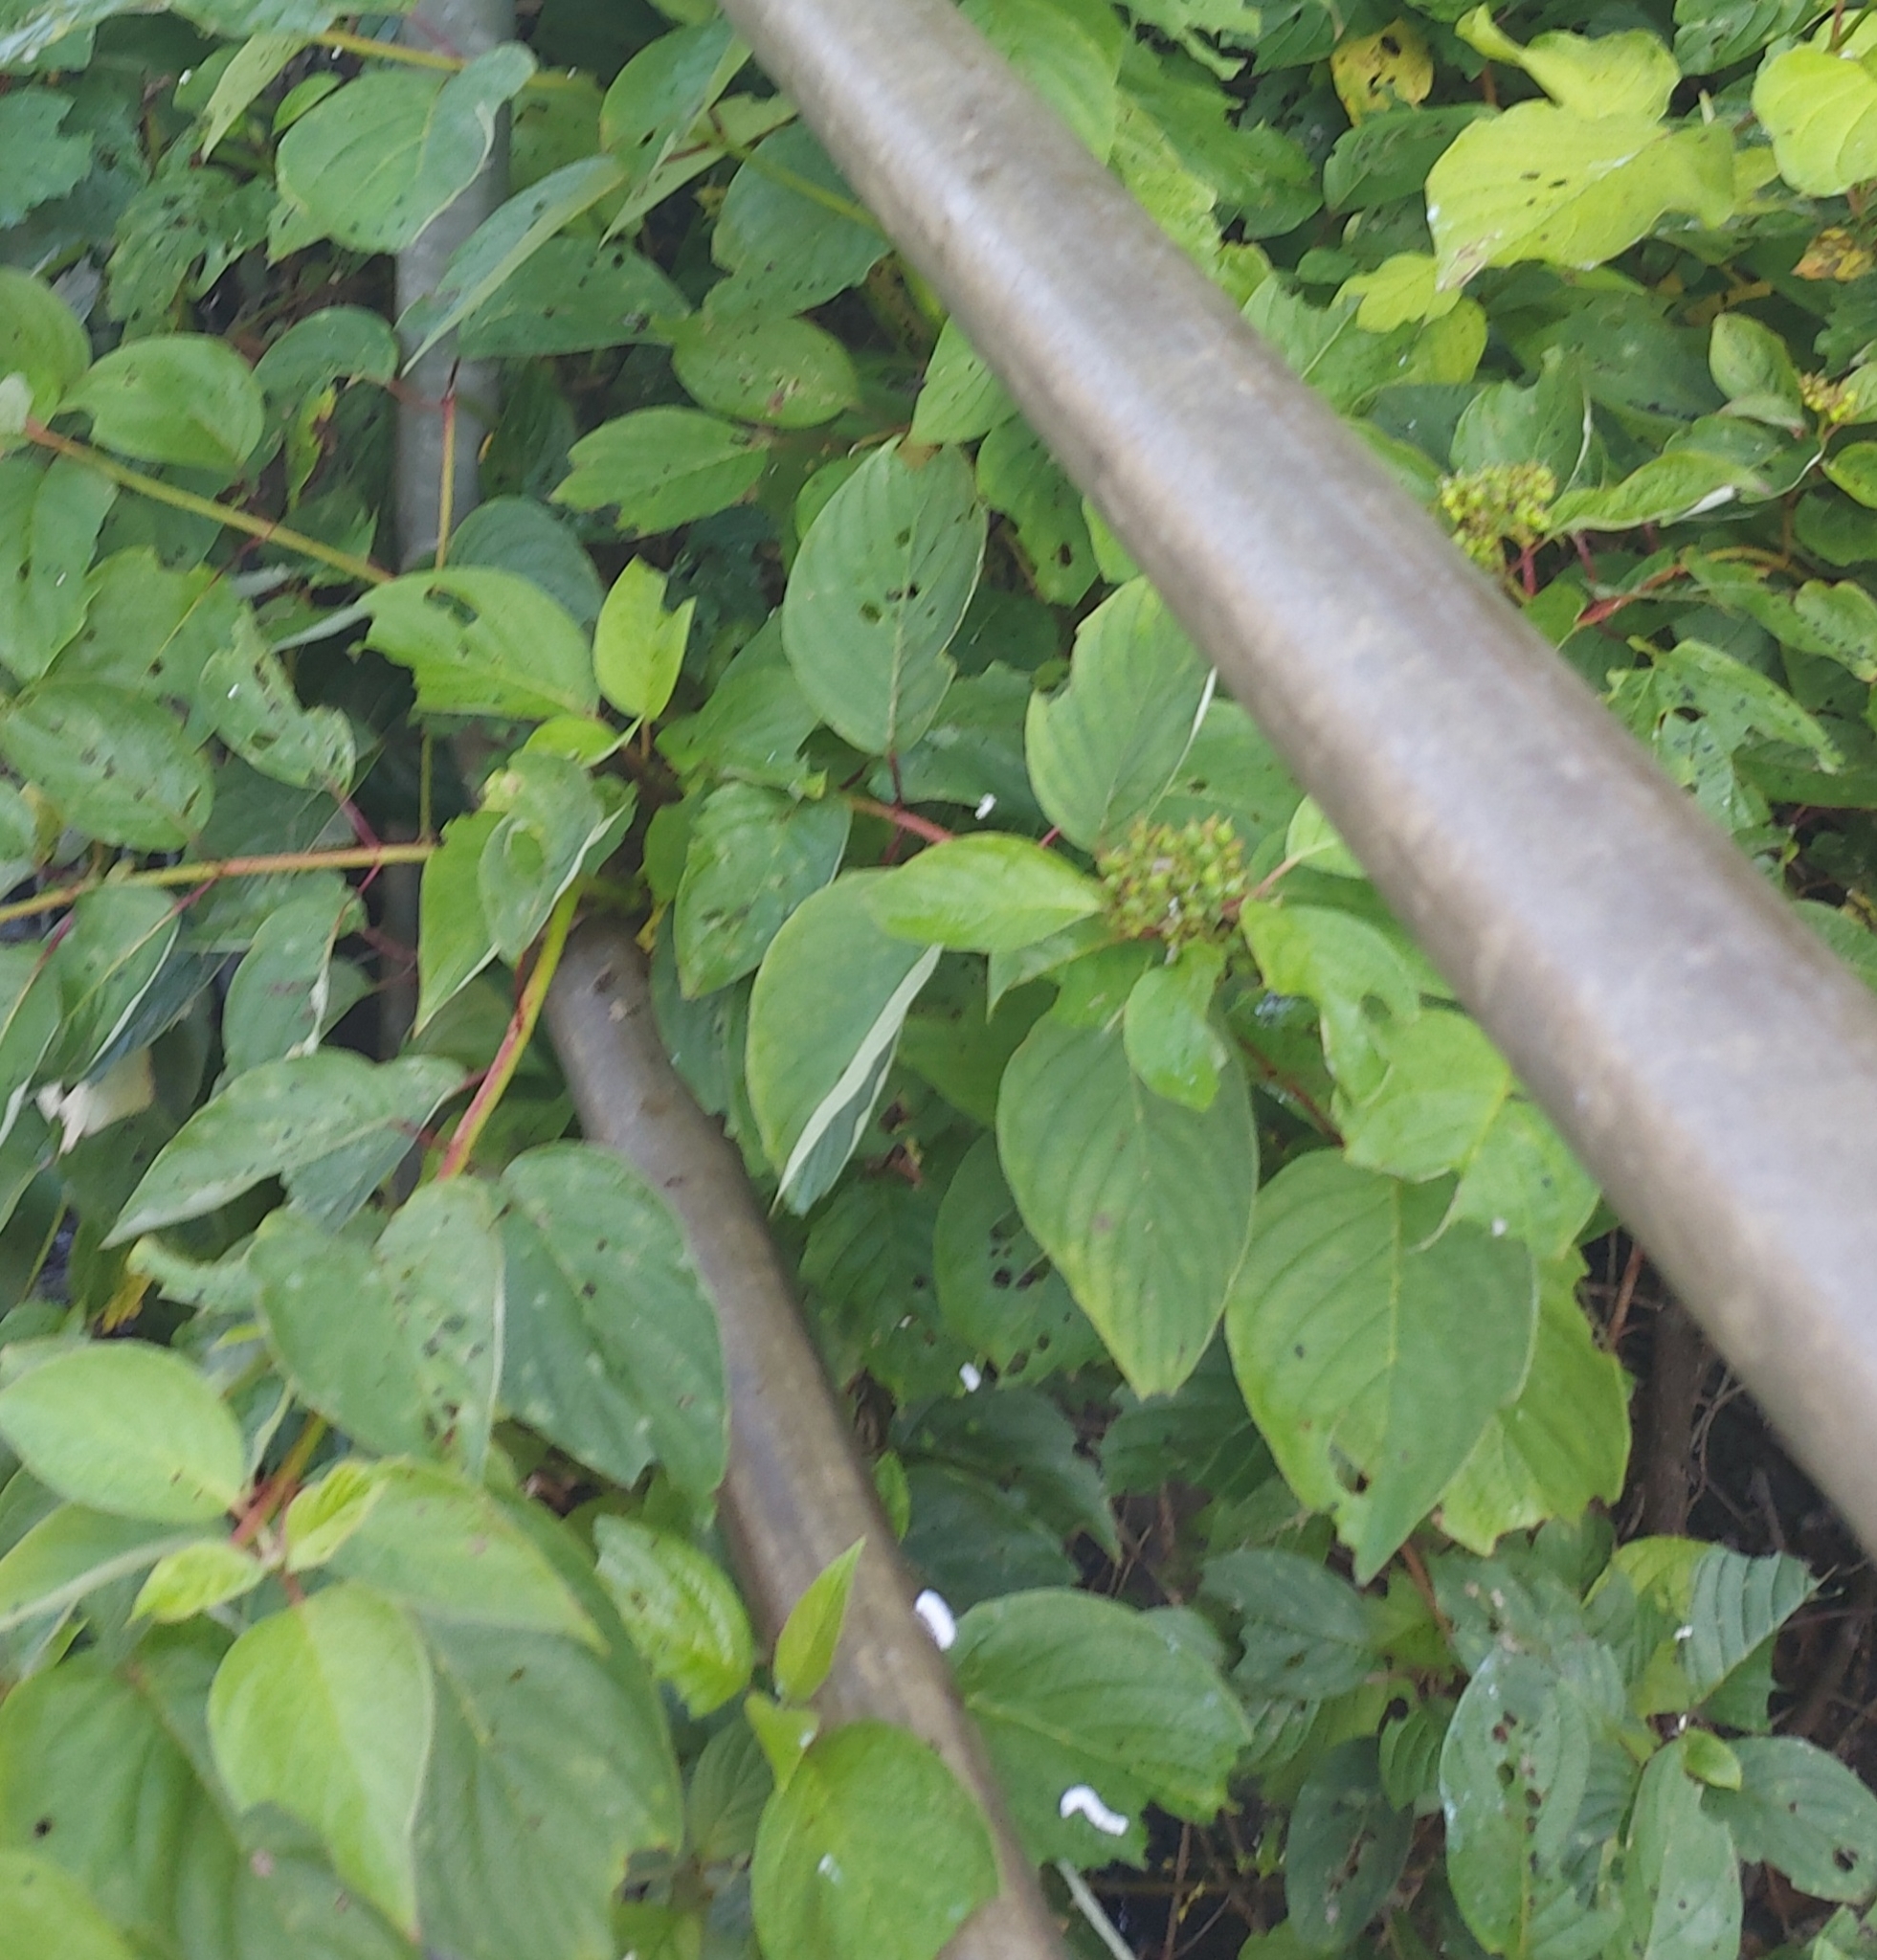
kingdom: Plantae
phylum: Tracheophyta
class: Magnoliopsida
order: Cornales
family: Cornaceae
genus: Cornus
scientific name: Cornus sericea
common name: Red-osier dogwood
